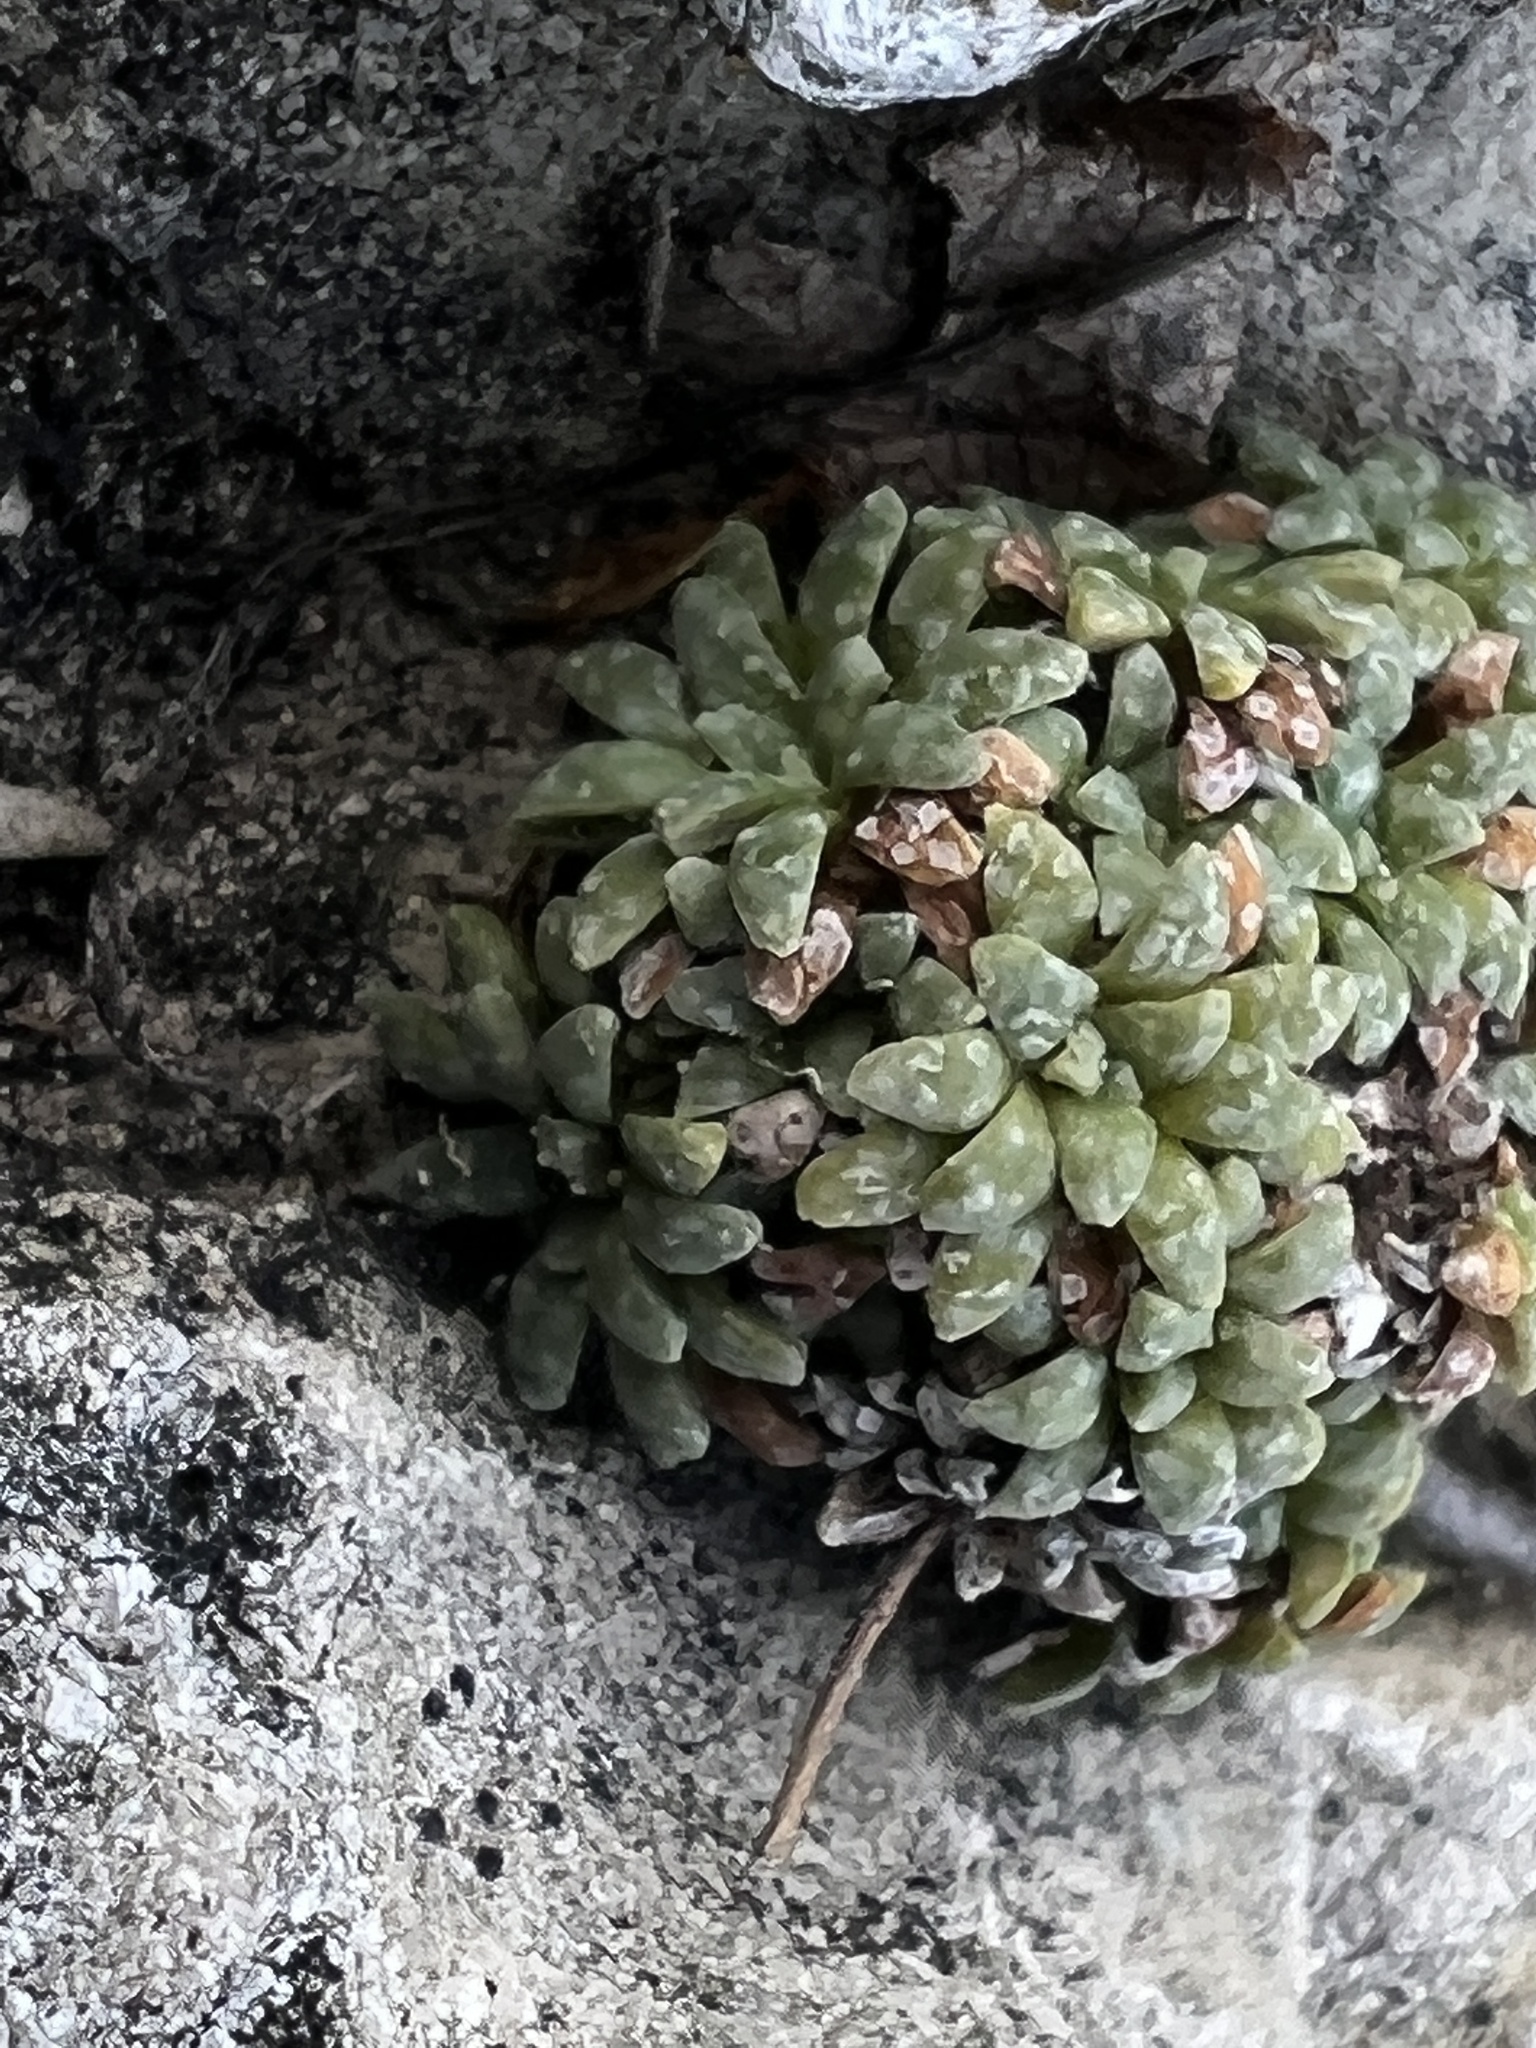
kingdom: Plantae
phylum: Tracheophyta
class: Magnoliopsida
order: Saxifragales
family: Saxifragaceae
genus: Saxifraga
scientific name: Saxifraga caesia
